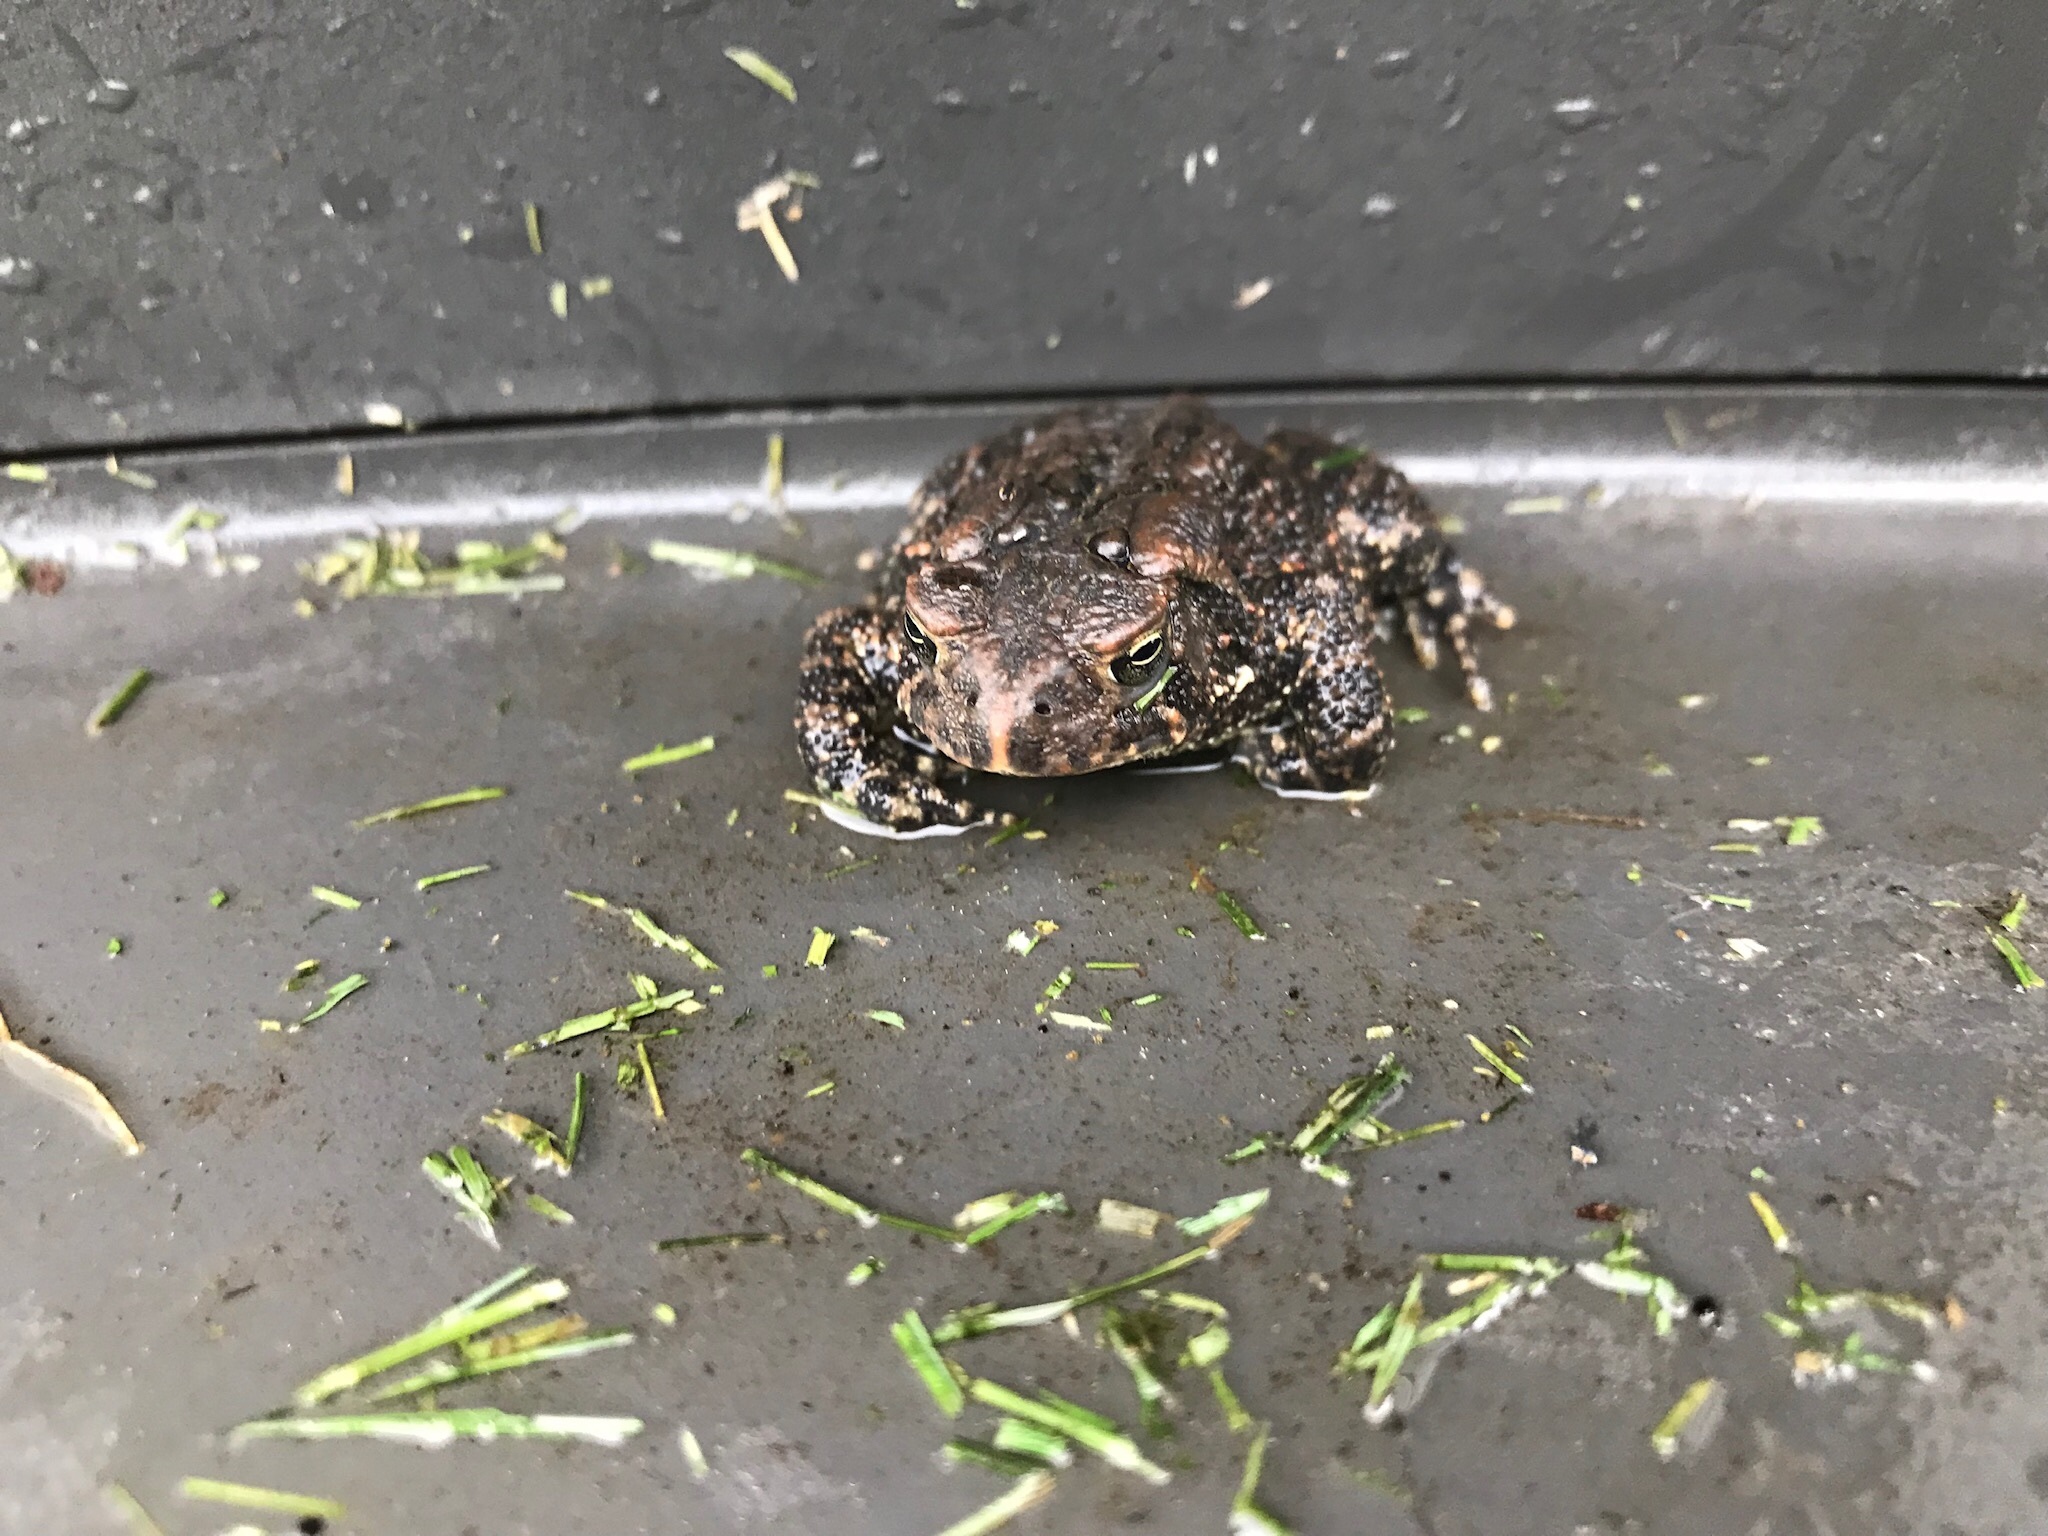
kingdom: Animalia
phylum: Chordata
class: Amphibia
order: Anura
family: Bufonidae
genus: Anaxyrus
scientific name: Anaxyrus americanus
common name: American toad
